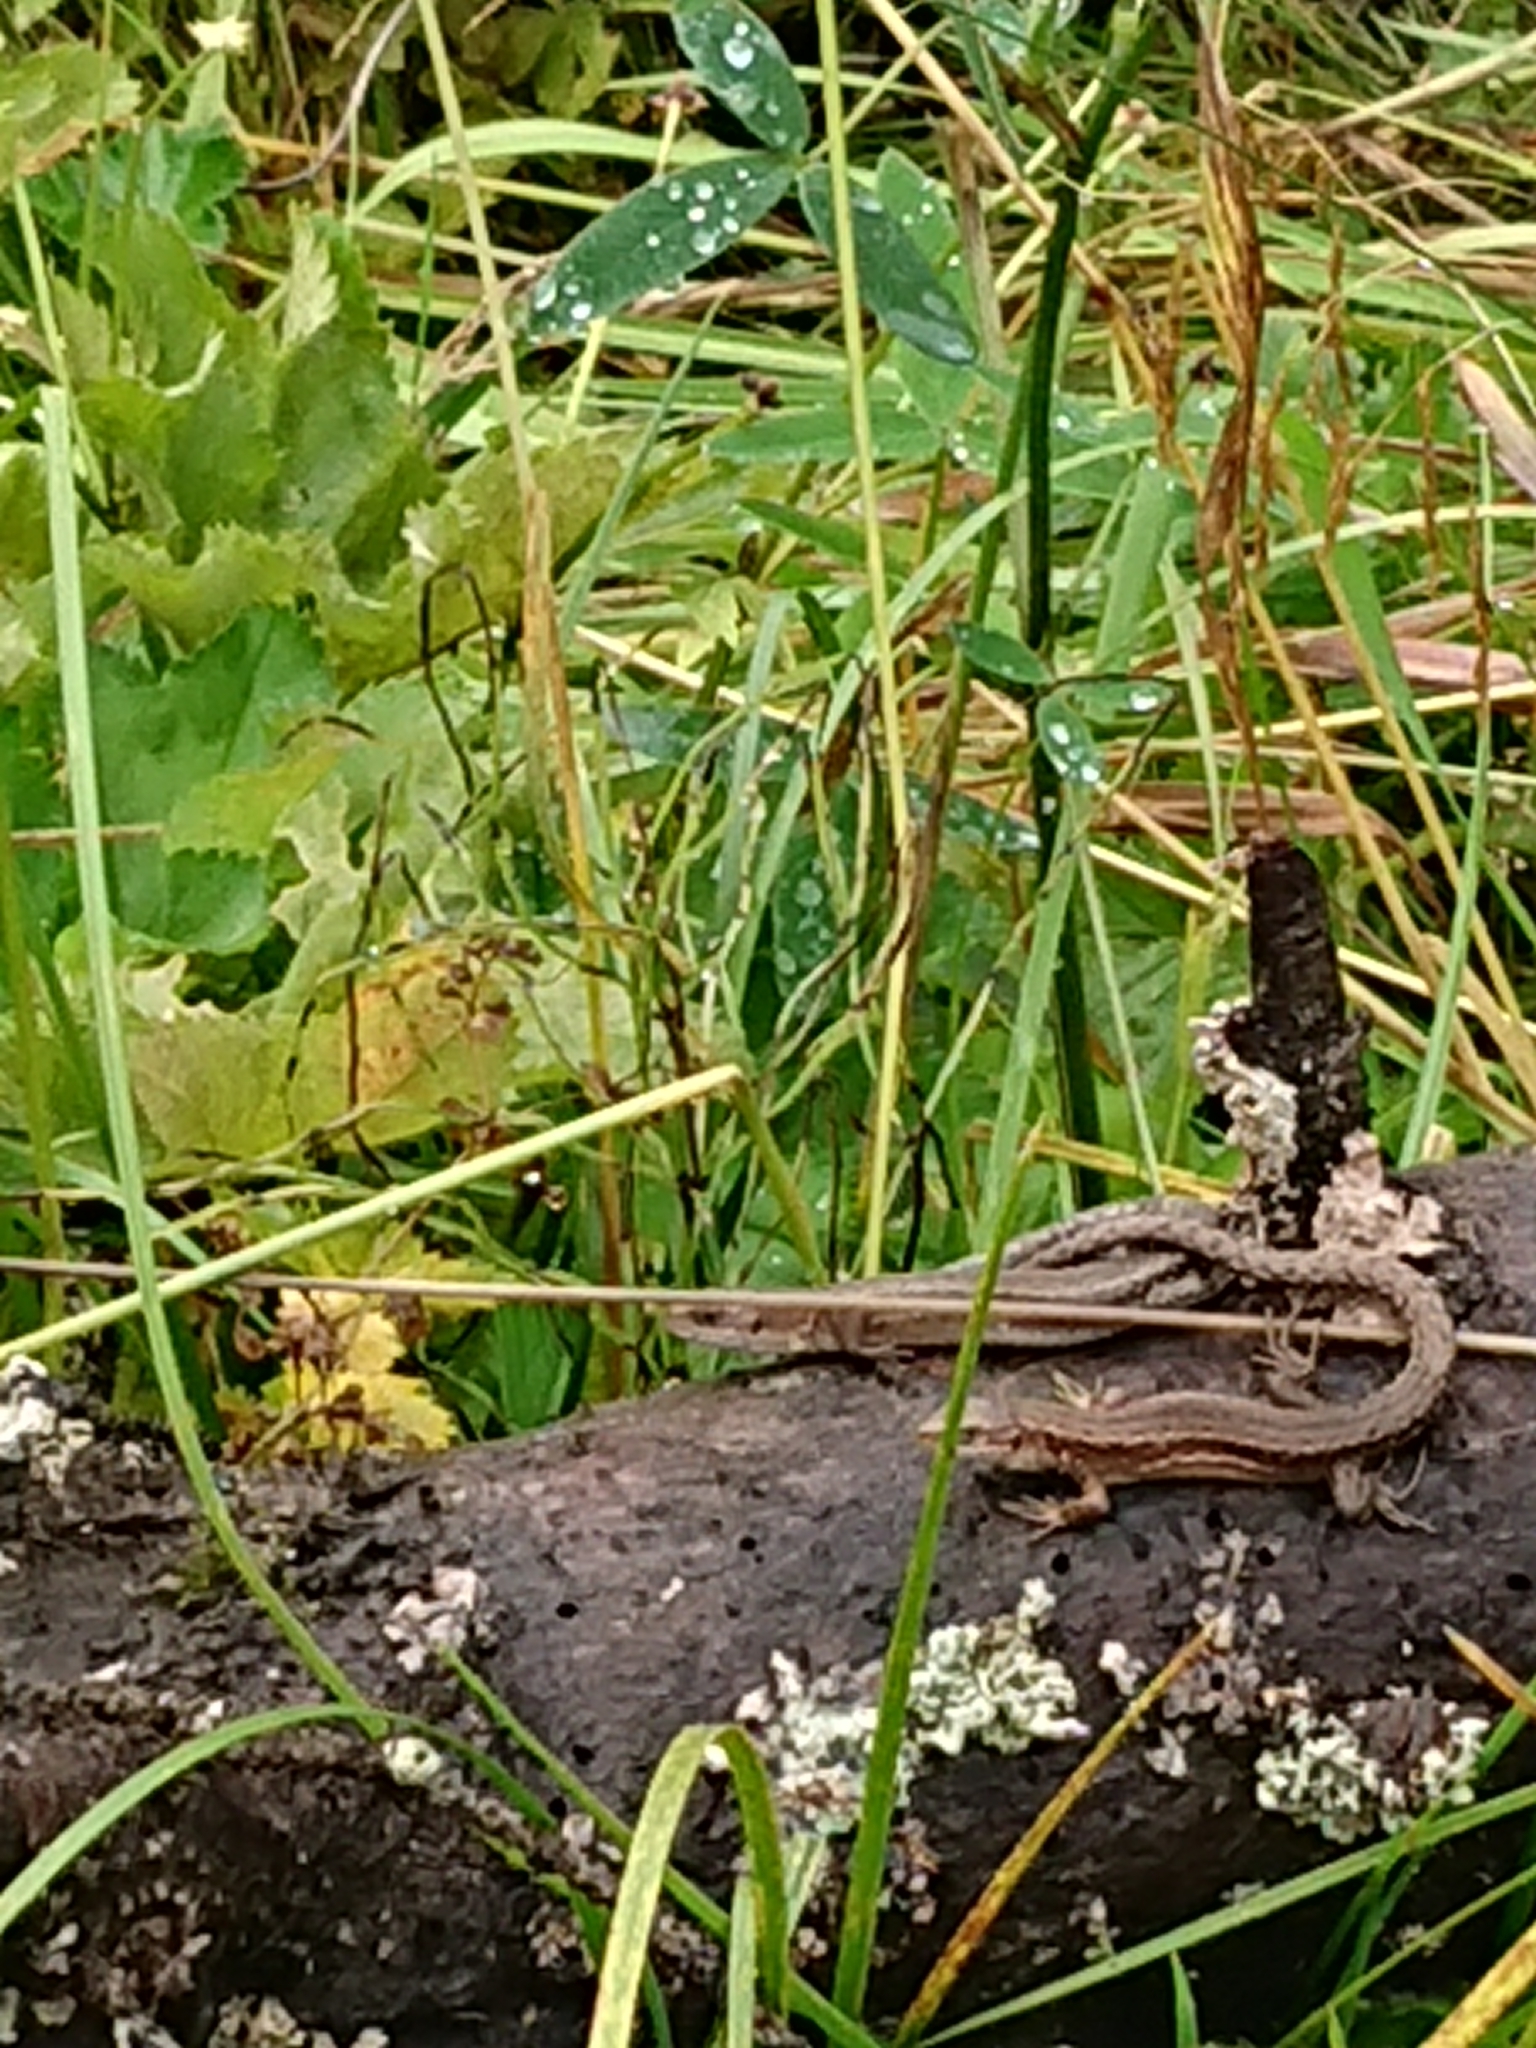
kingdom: Animalia
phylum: Chordata
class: Squamata
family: Lacertidae
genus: Zootoca
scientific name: Zootoca vivipara
